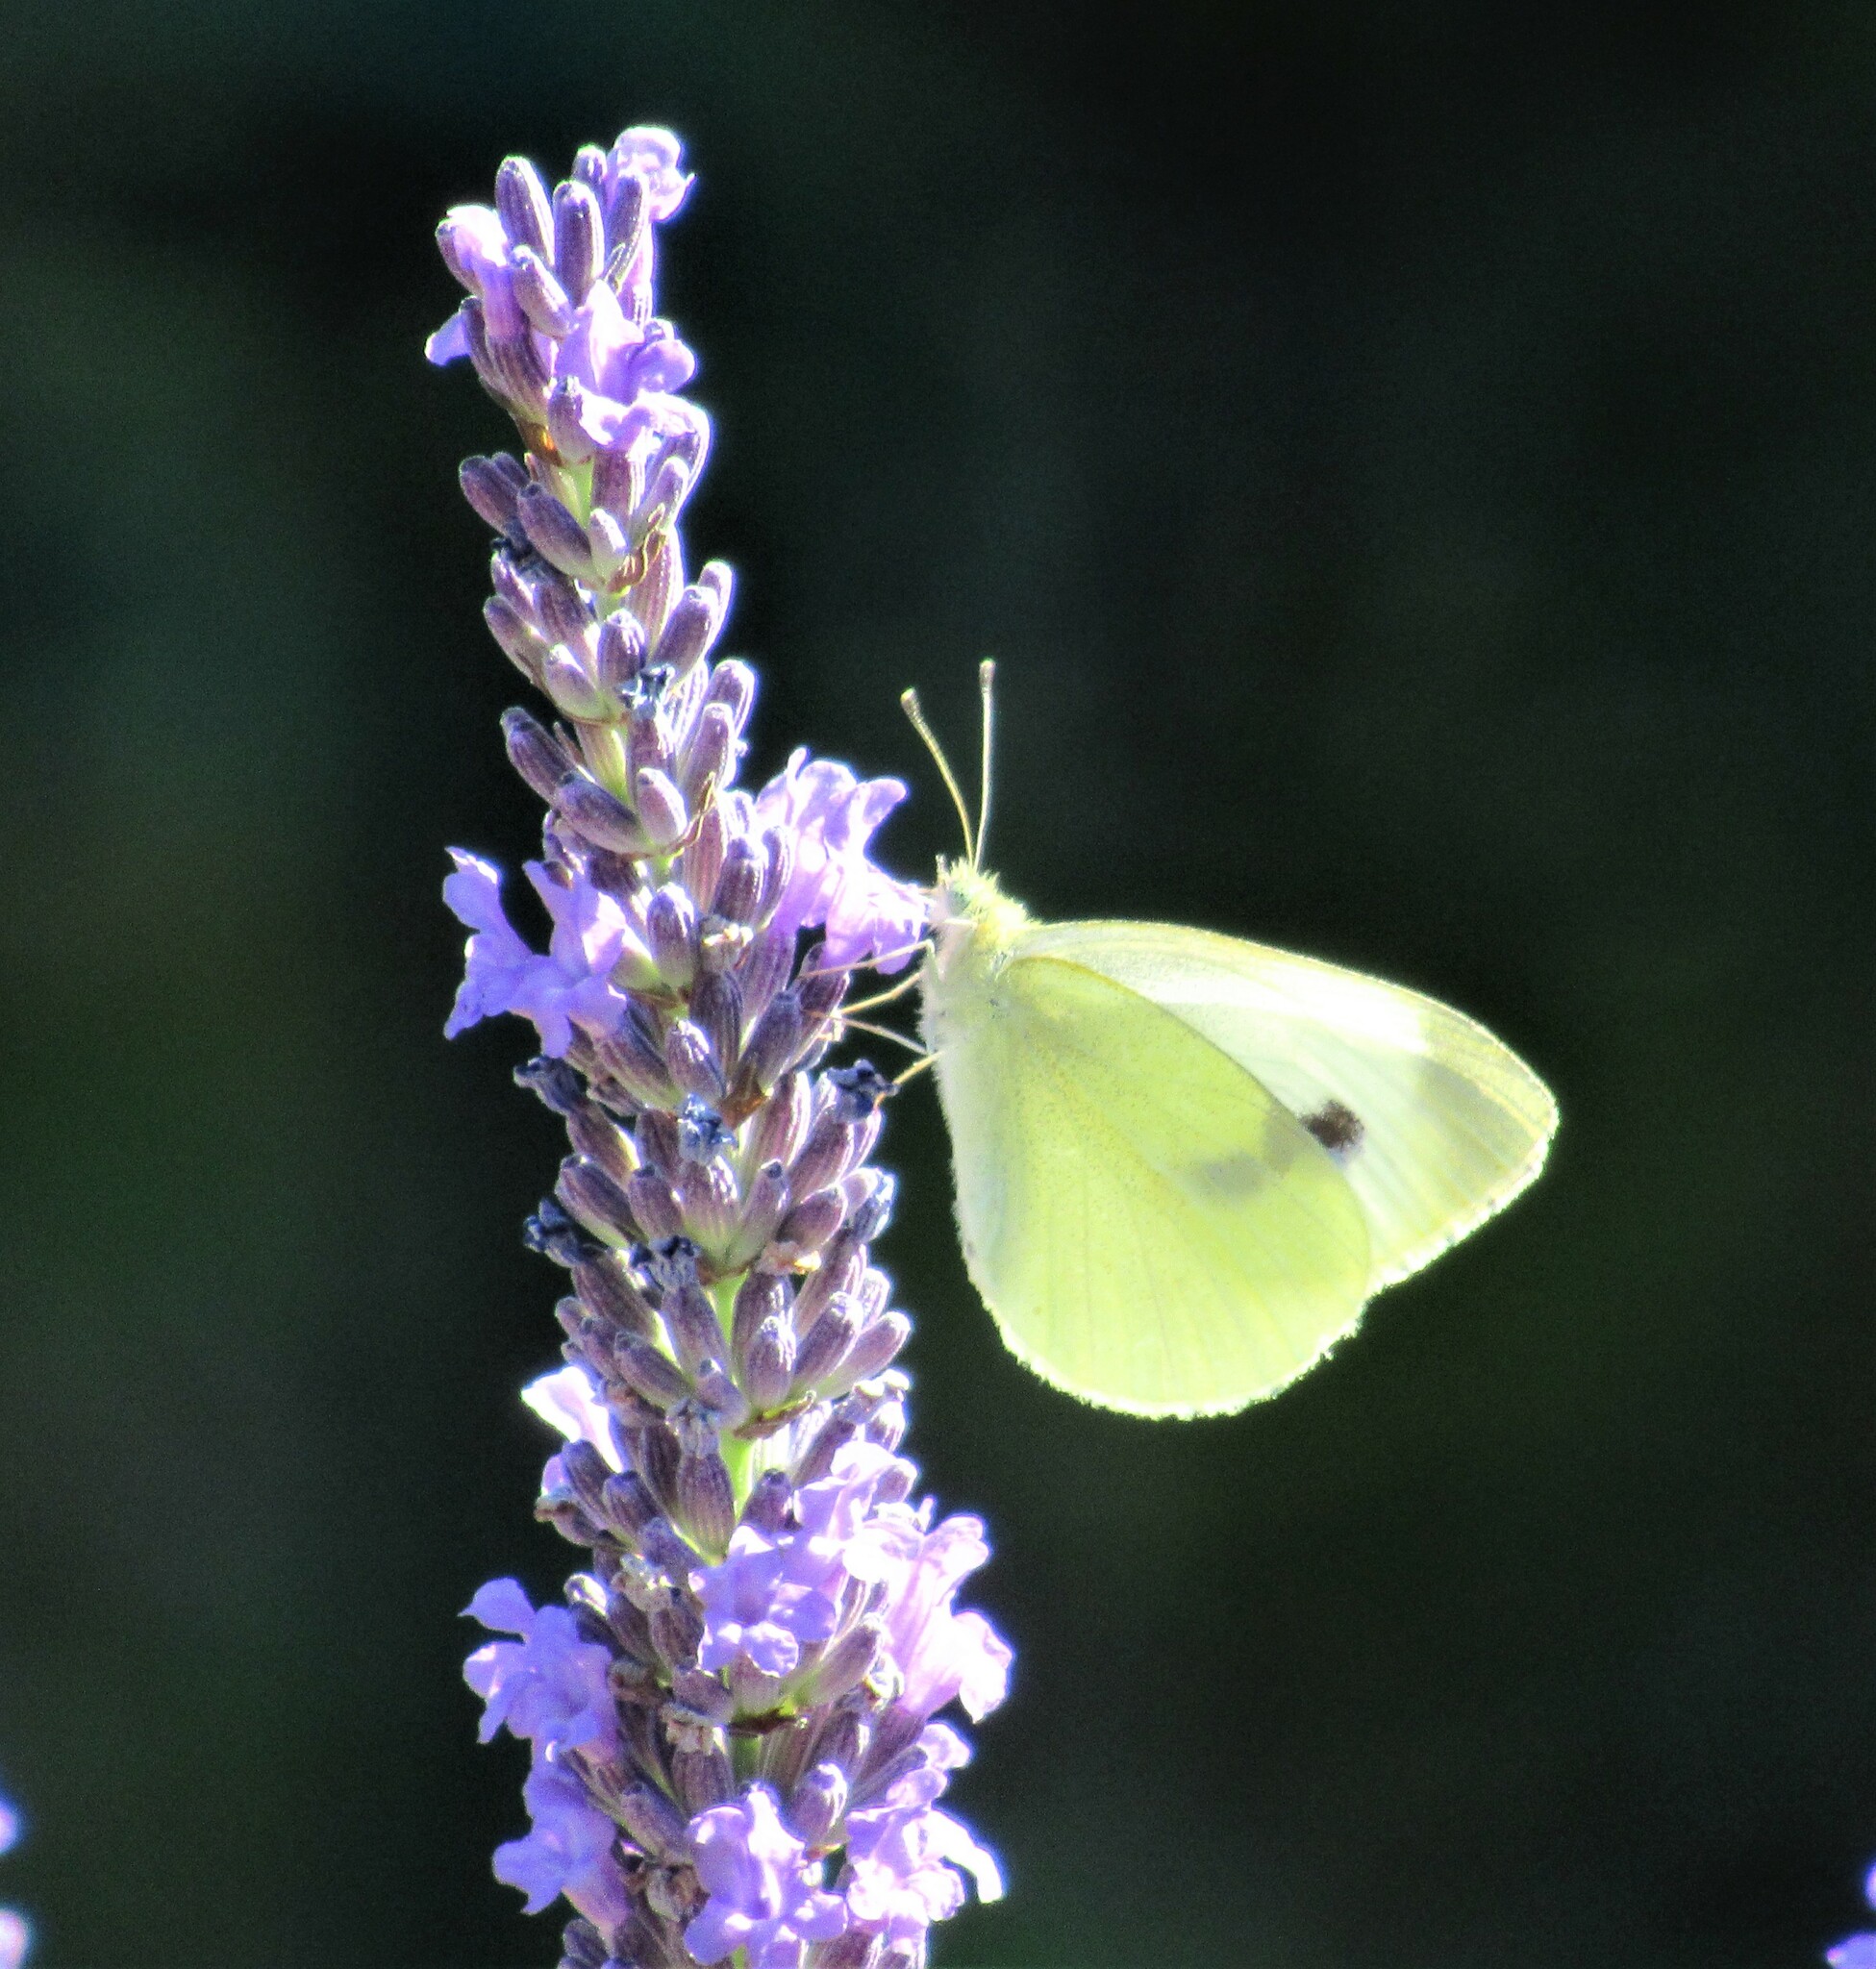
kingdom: Animalia
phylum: Arthropoda
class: Insecta
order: Lepidoptera
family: Pieridae
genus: Pieris
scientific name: Pieris rapae
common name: Small white
